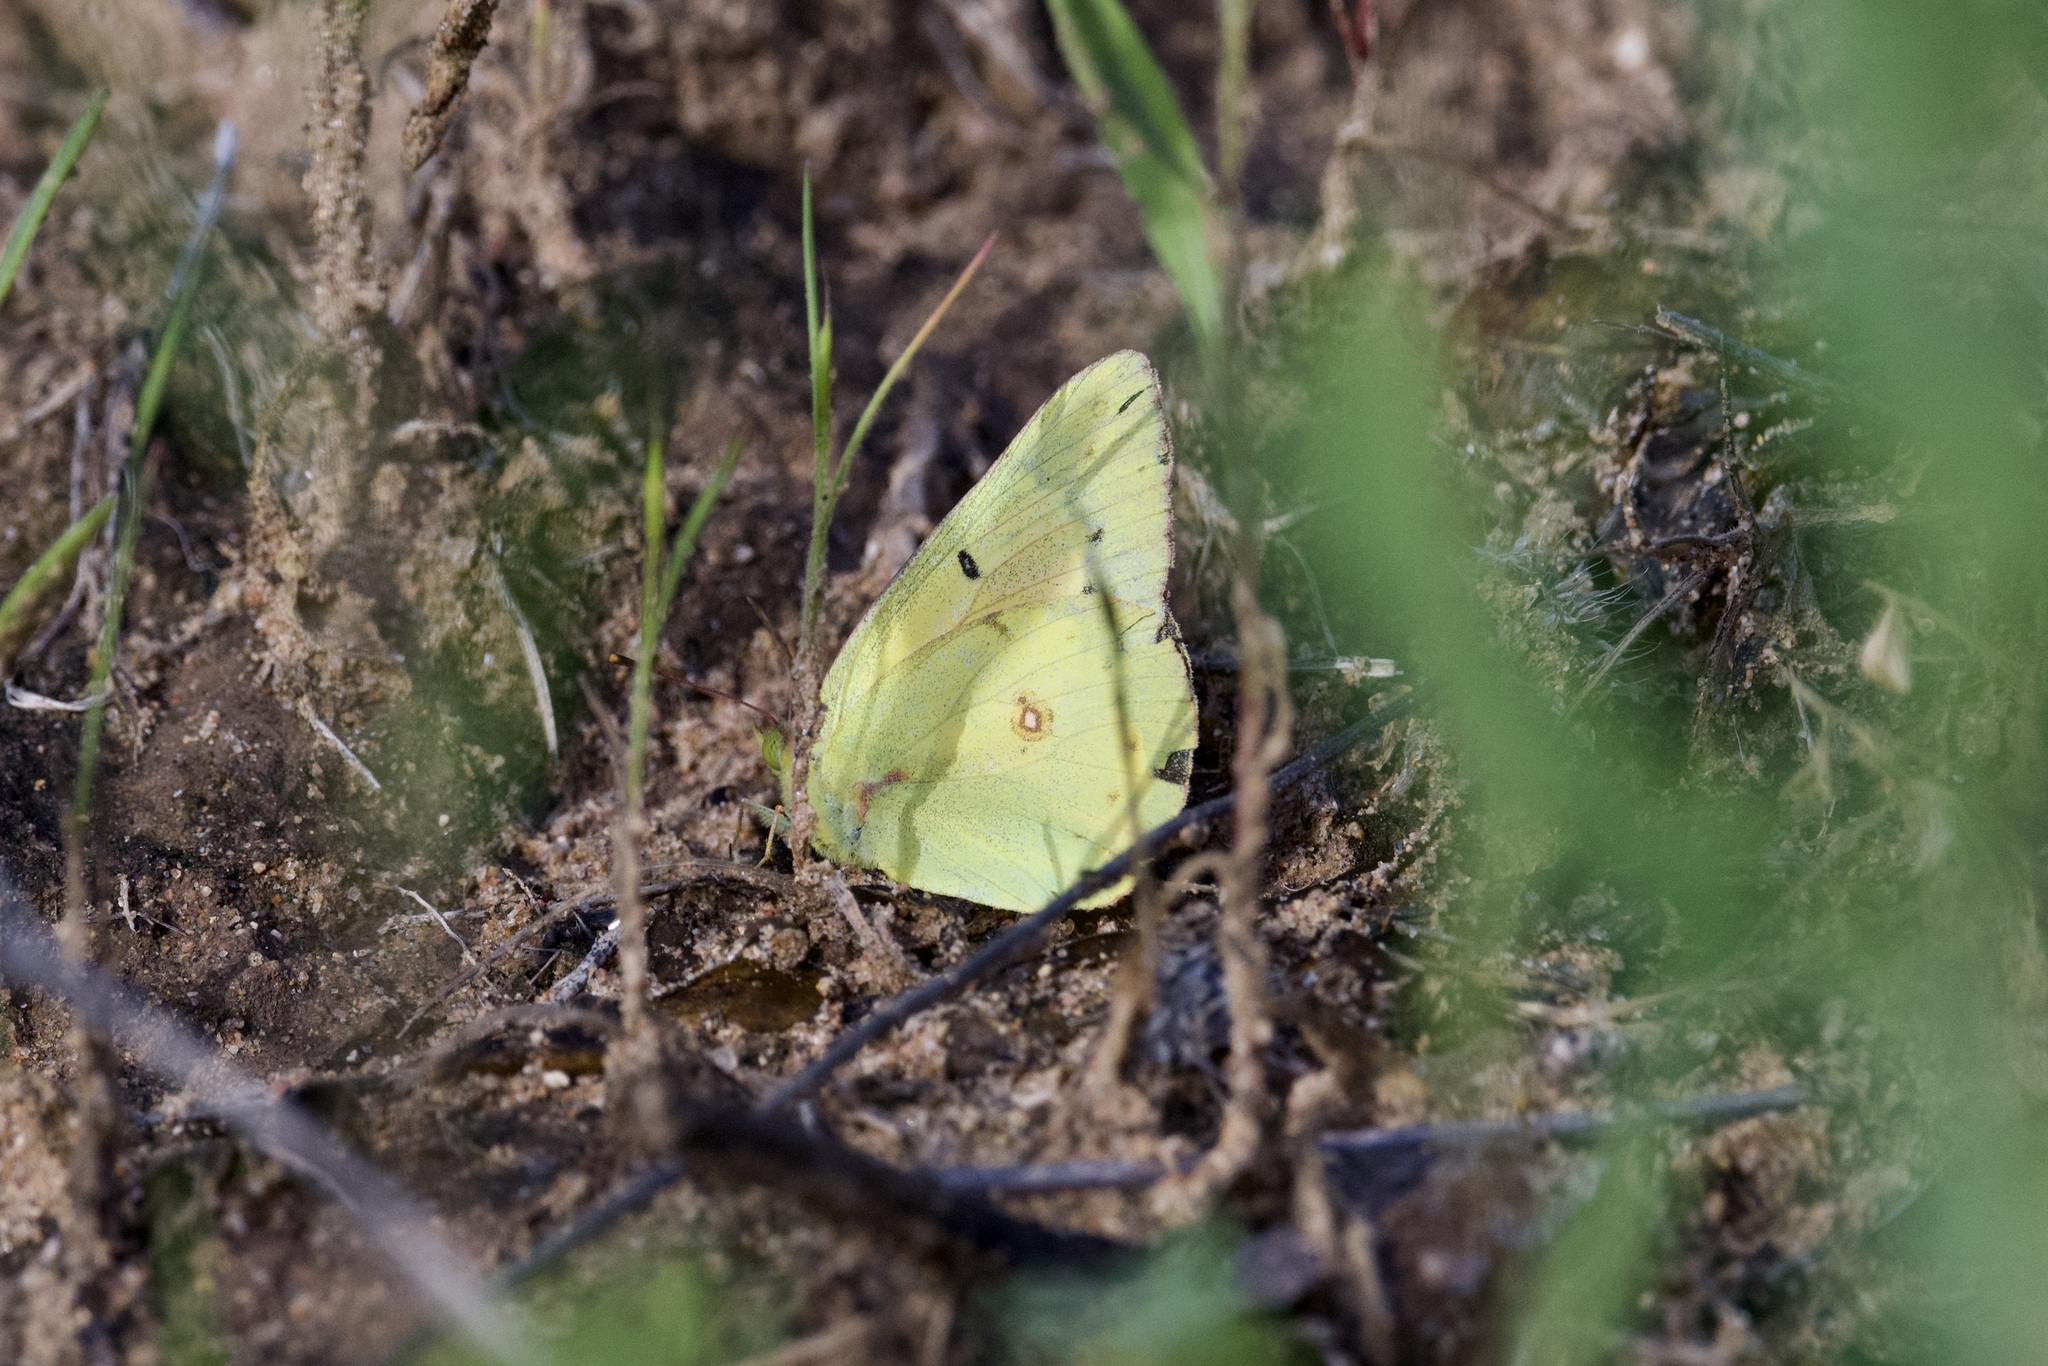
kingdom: Animalia
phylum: Arthropoda
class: Insecta
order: Lepidoptera
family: Pieridae
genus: Colias
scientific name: Colias eurytheme
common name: Alfalfa butterfly
